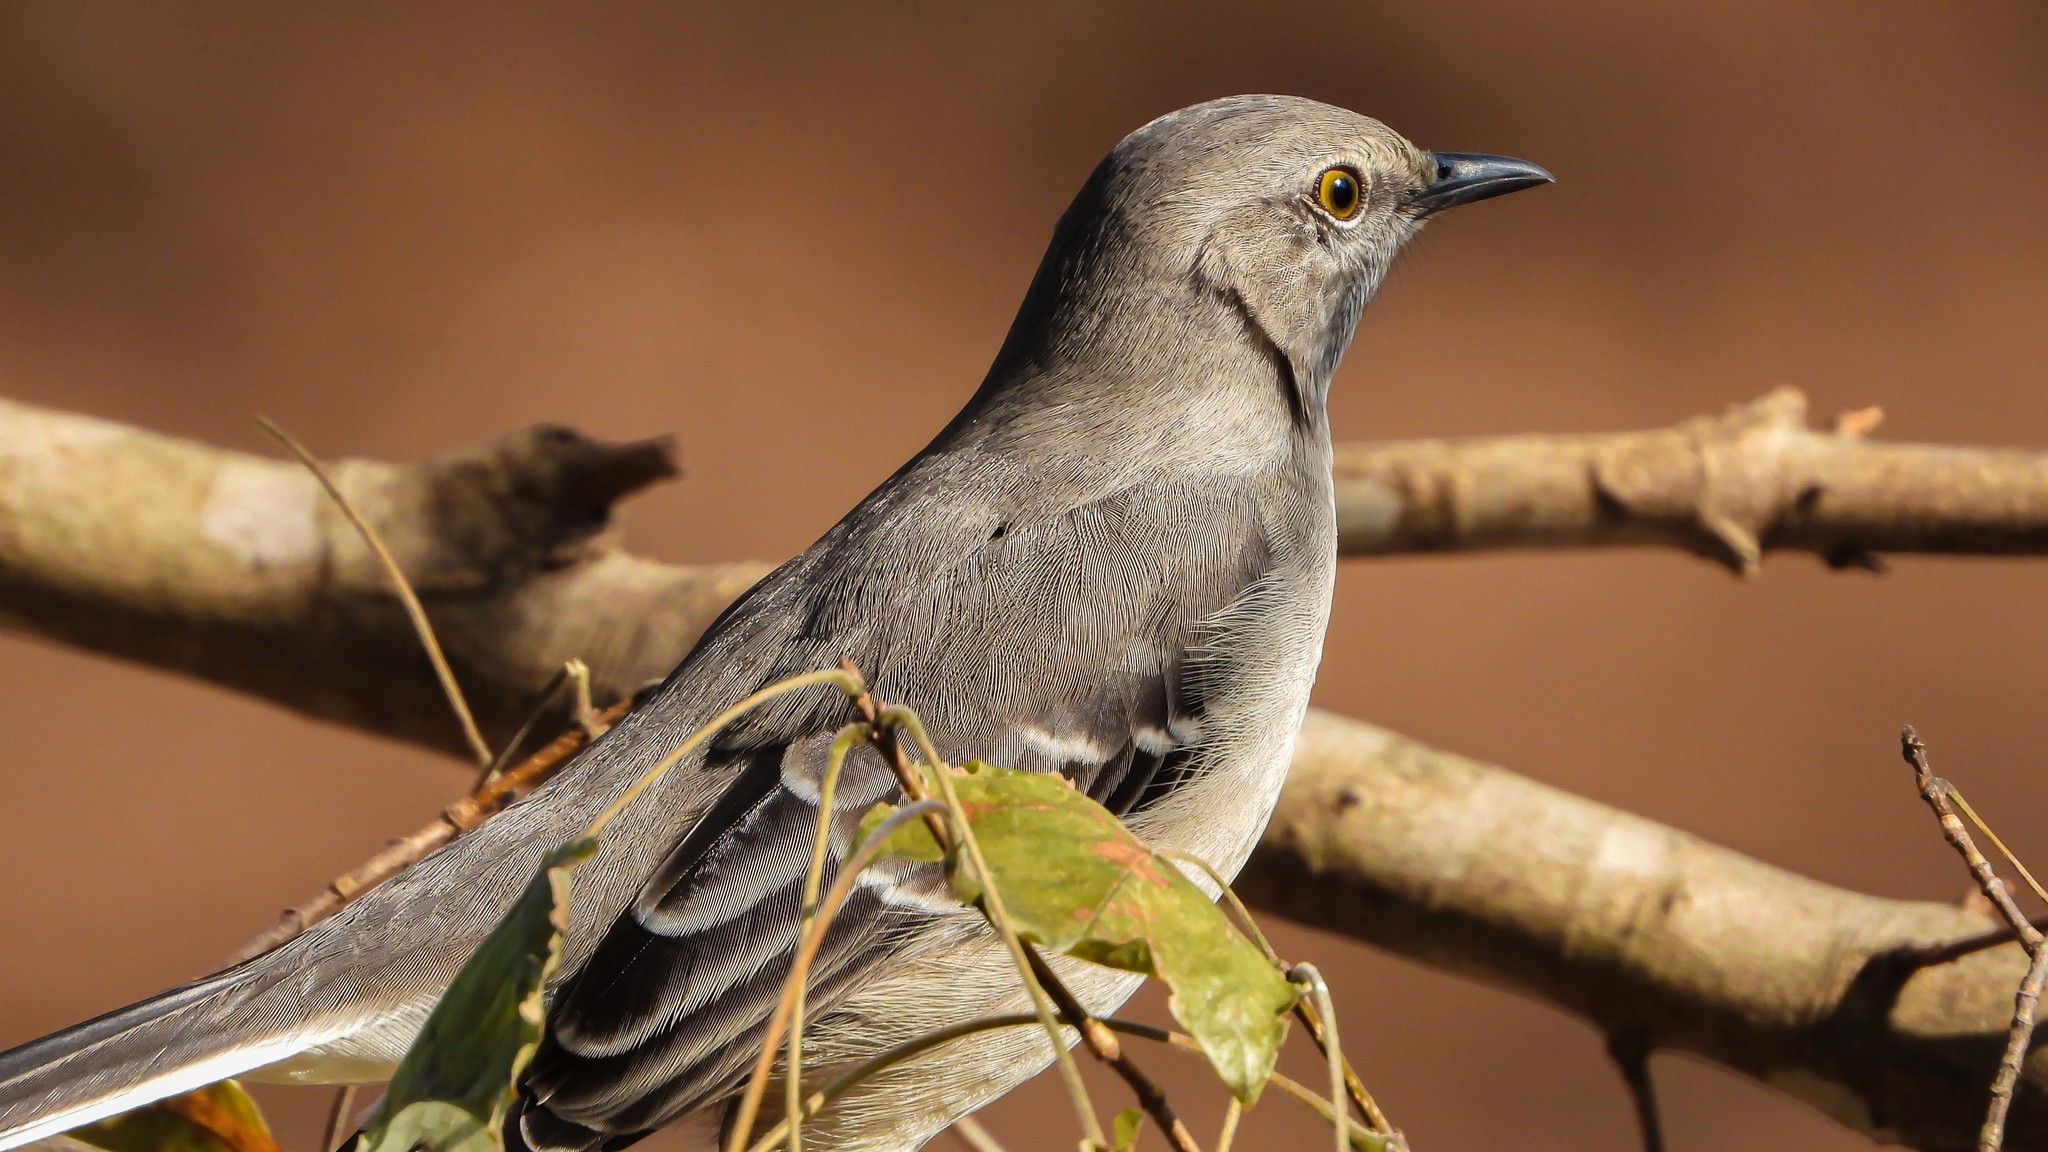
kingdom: Animalia
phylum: Chordata
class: Aves
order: Passeriformes
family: Mimidae
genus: Mimus
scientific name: Mimus polyglottos
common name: Northern mockingbird
